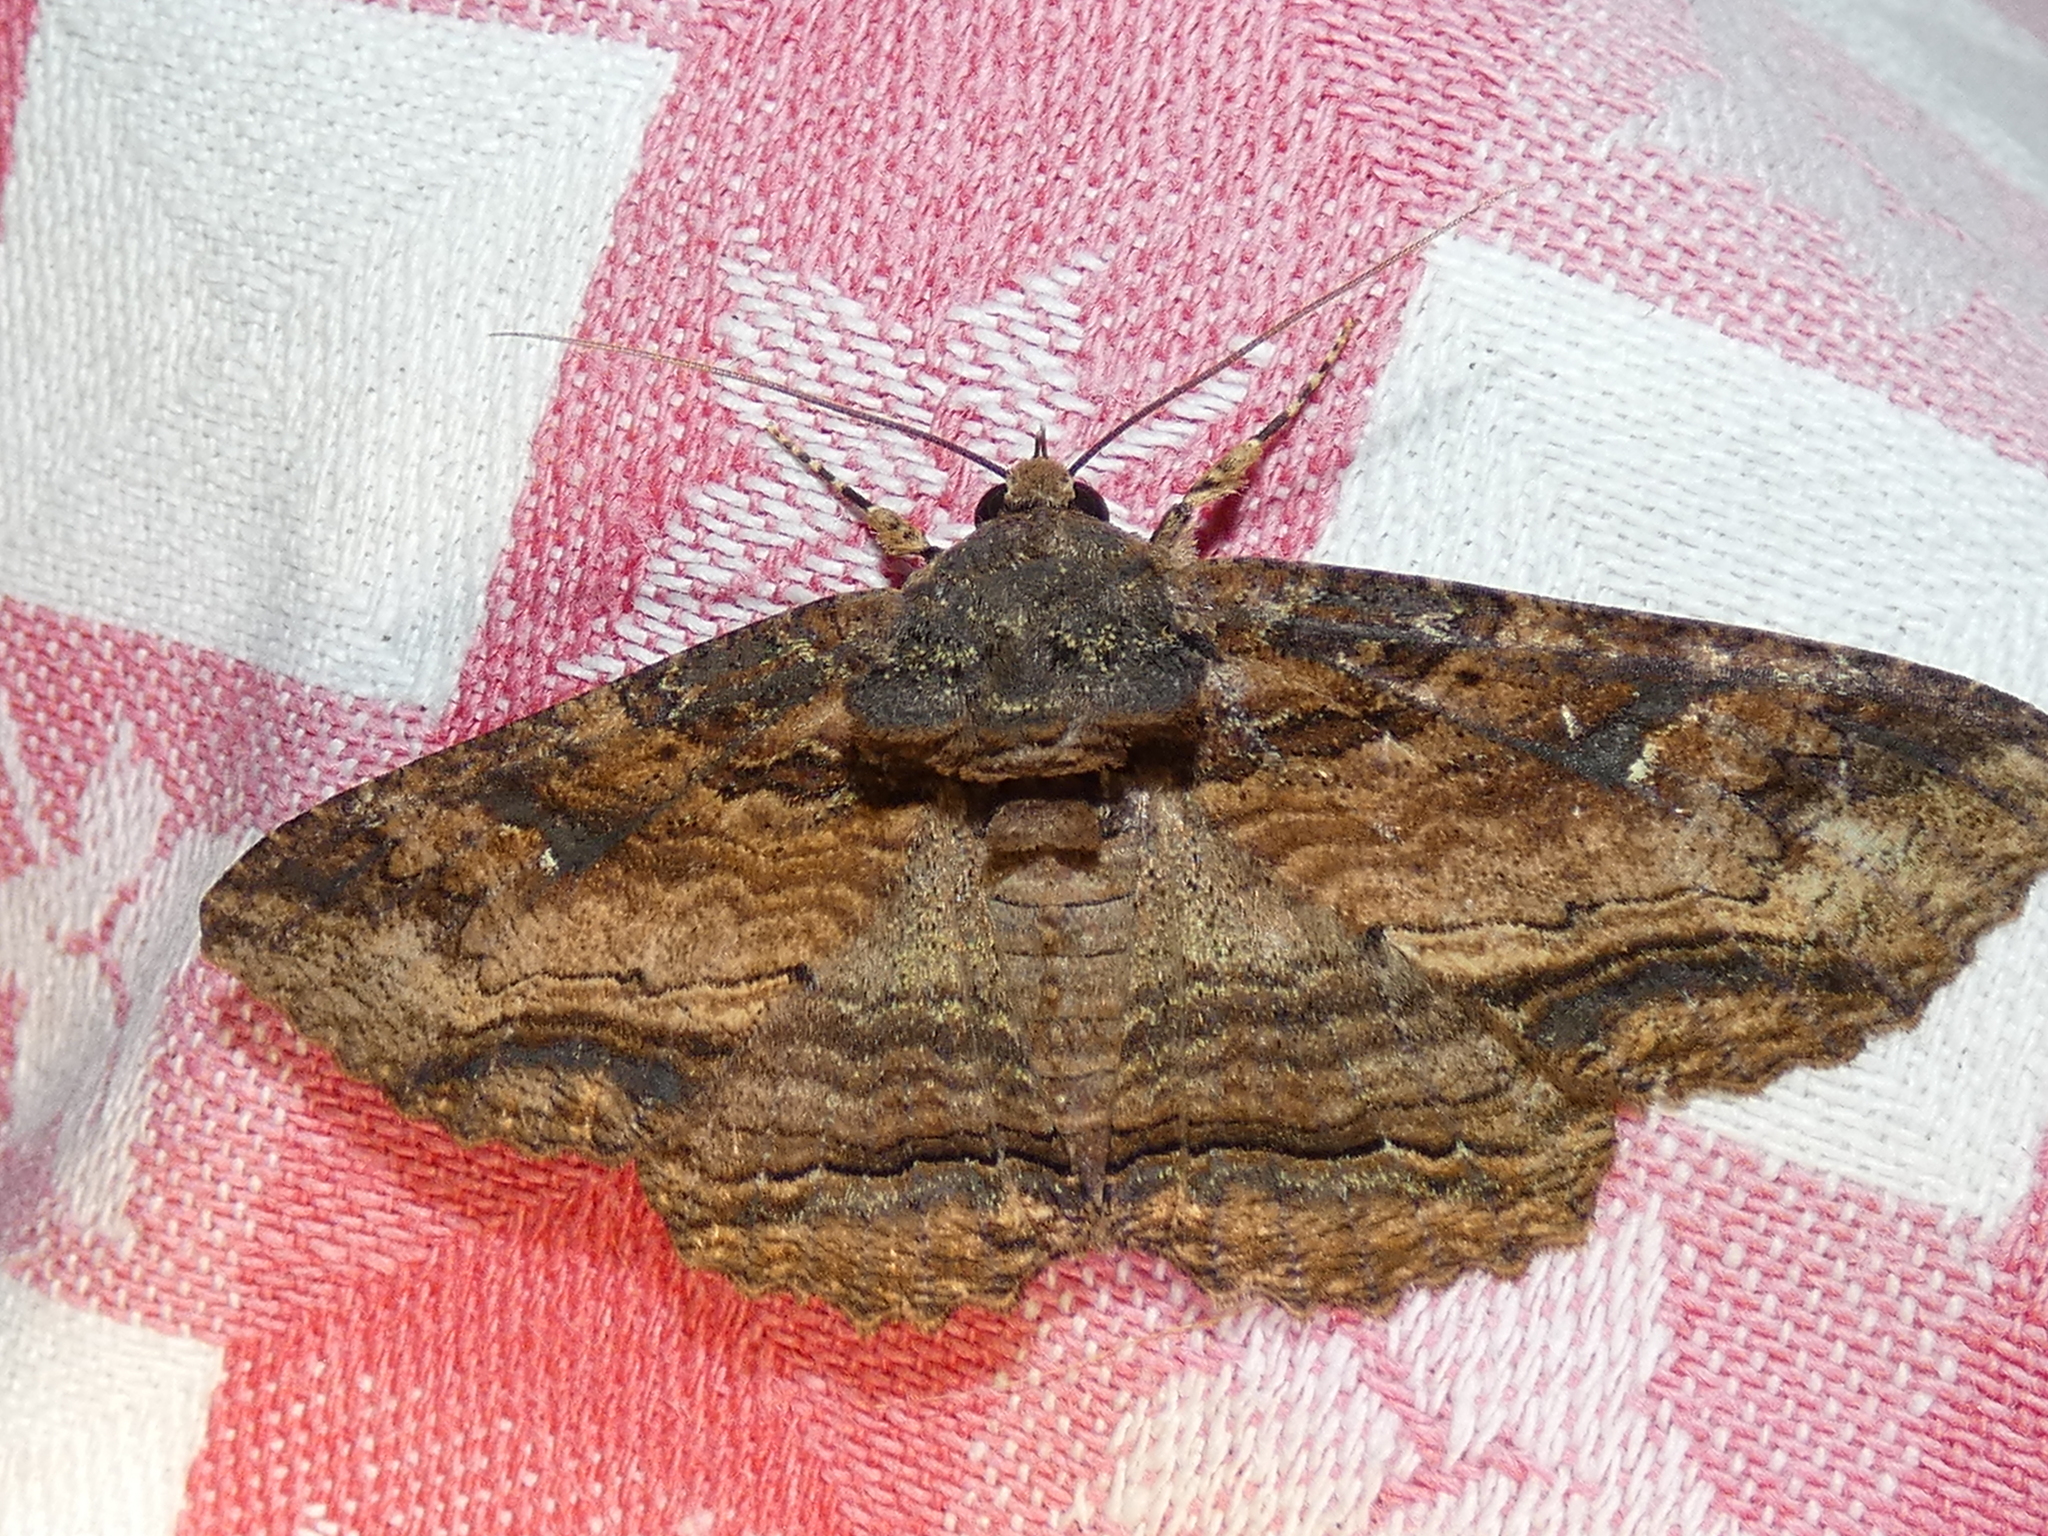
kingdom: Animalia
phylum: Arthropoda
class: Insecta
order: Lepidoptera
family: Erebidae
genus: Zale
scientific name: Zale lunata
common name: Lunate zale moth
